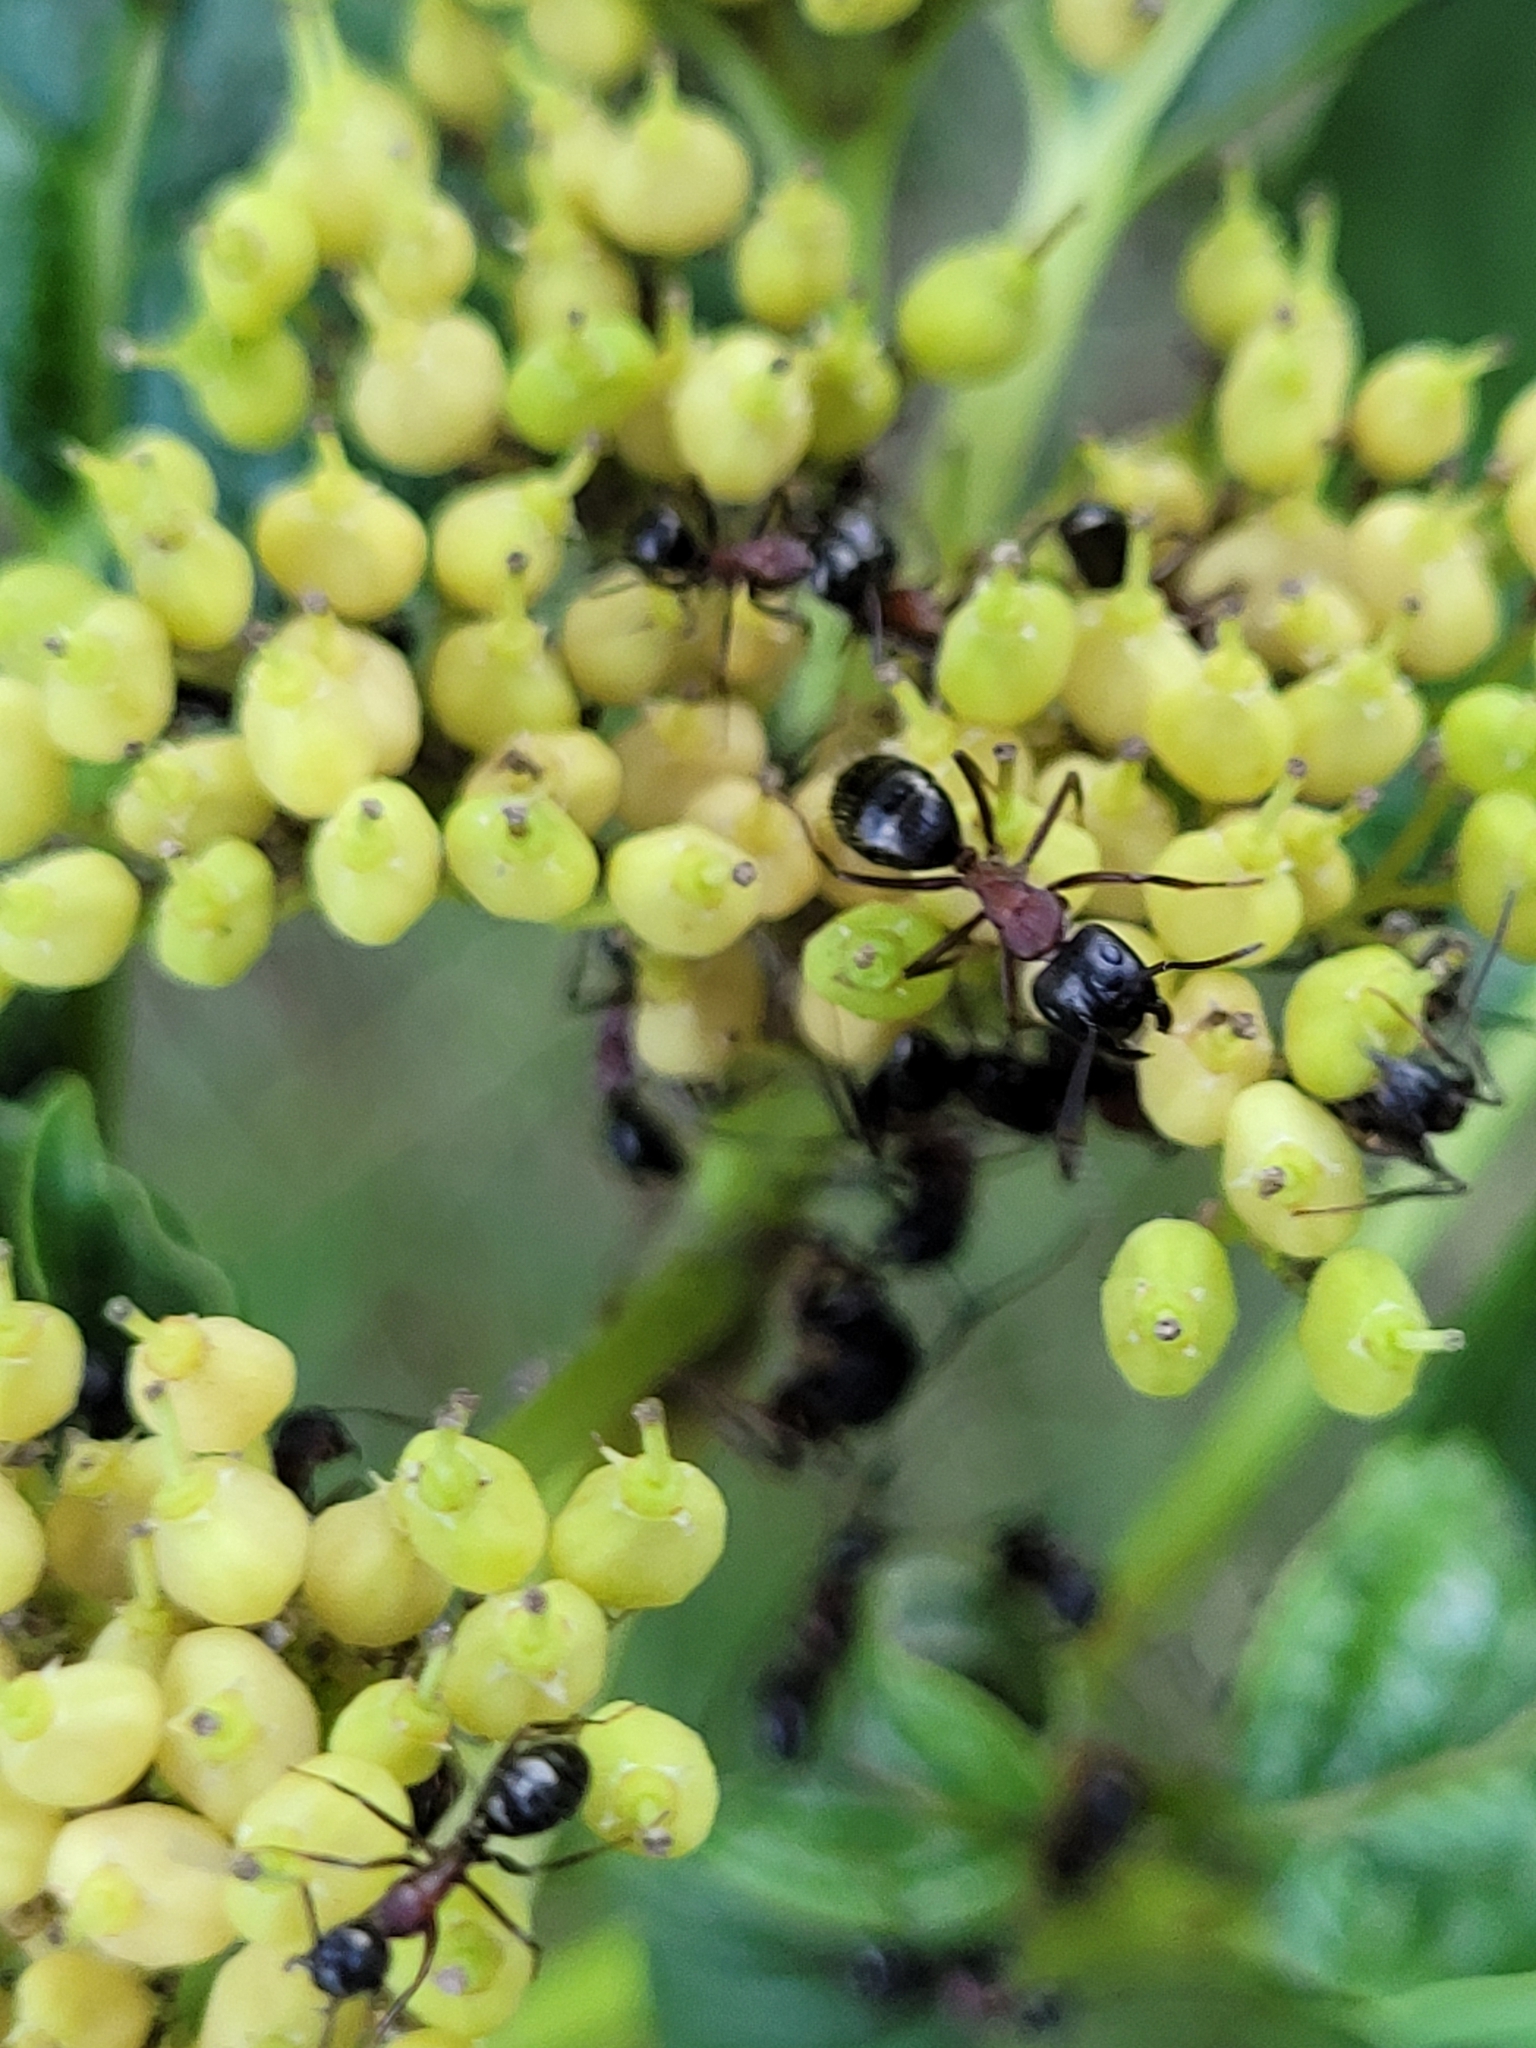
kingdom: Animalia
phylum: Arthropoda
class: Insecta
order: Hymenoptera
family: Formicidae
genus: Camponotus
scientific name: Camponotus novaeboracensis
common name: New york carpenter ant
